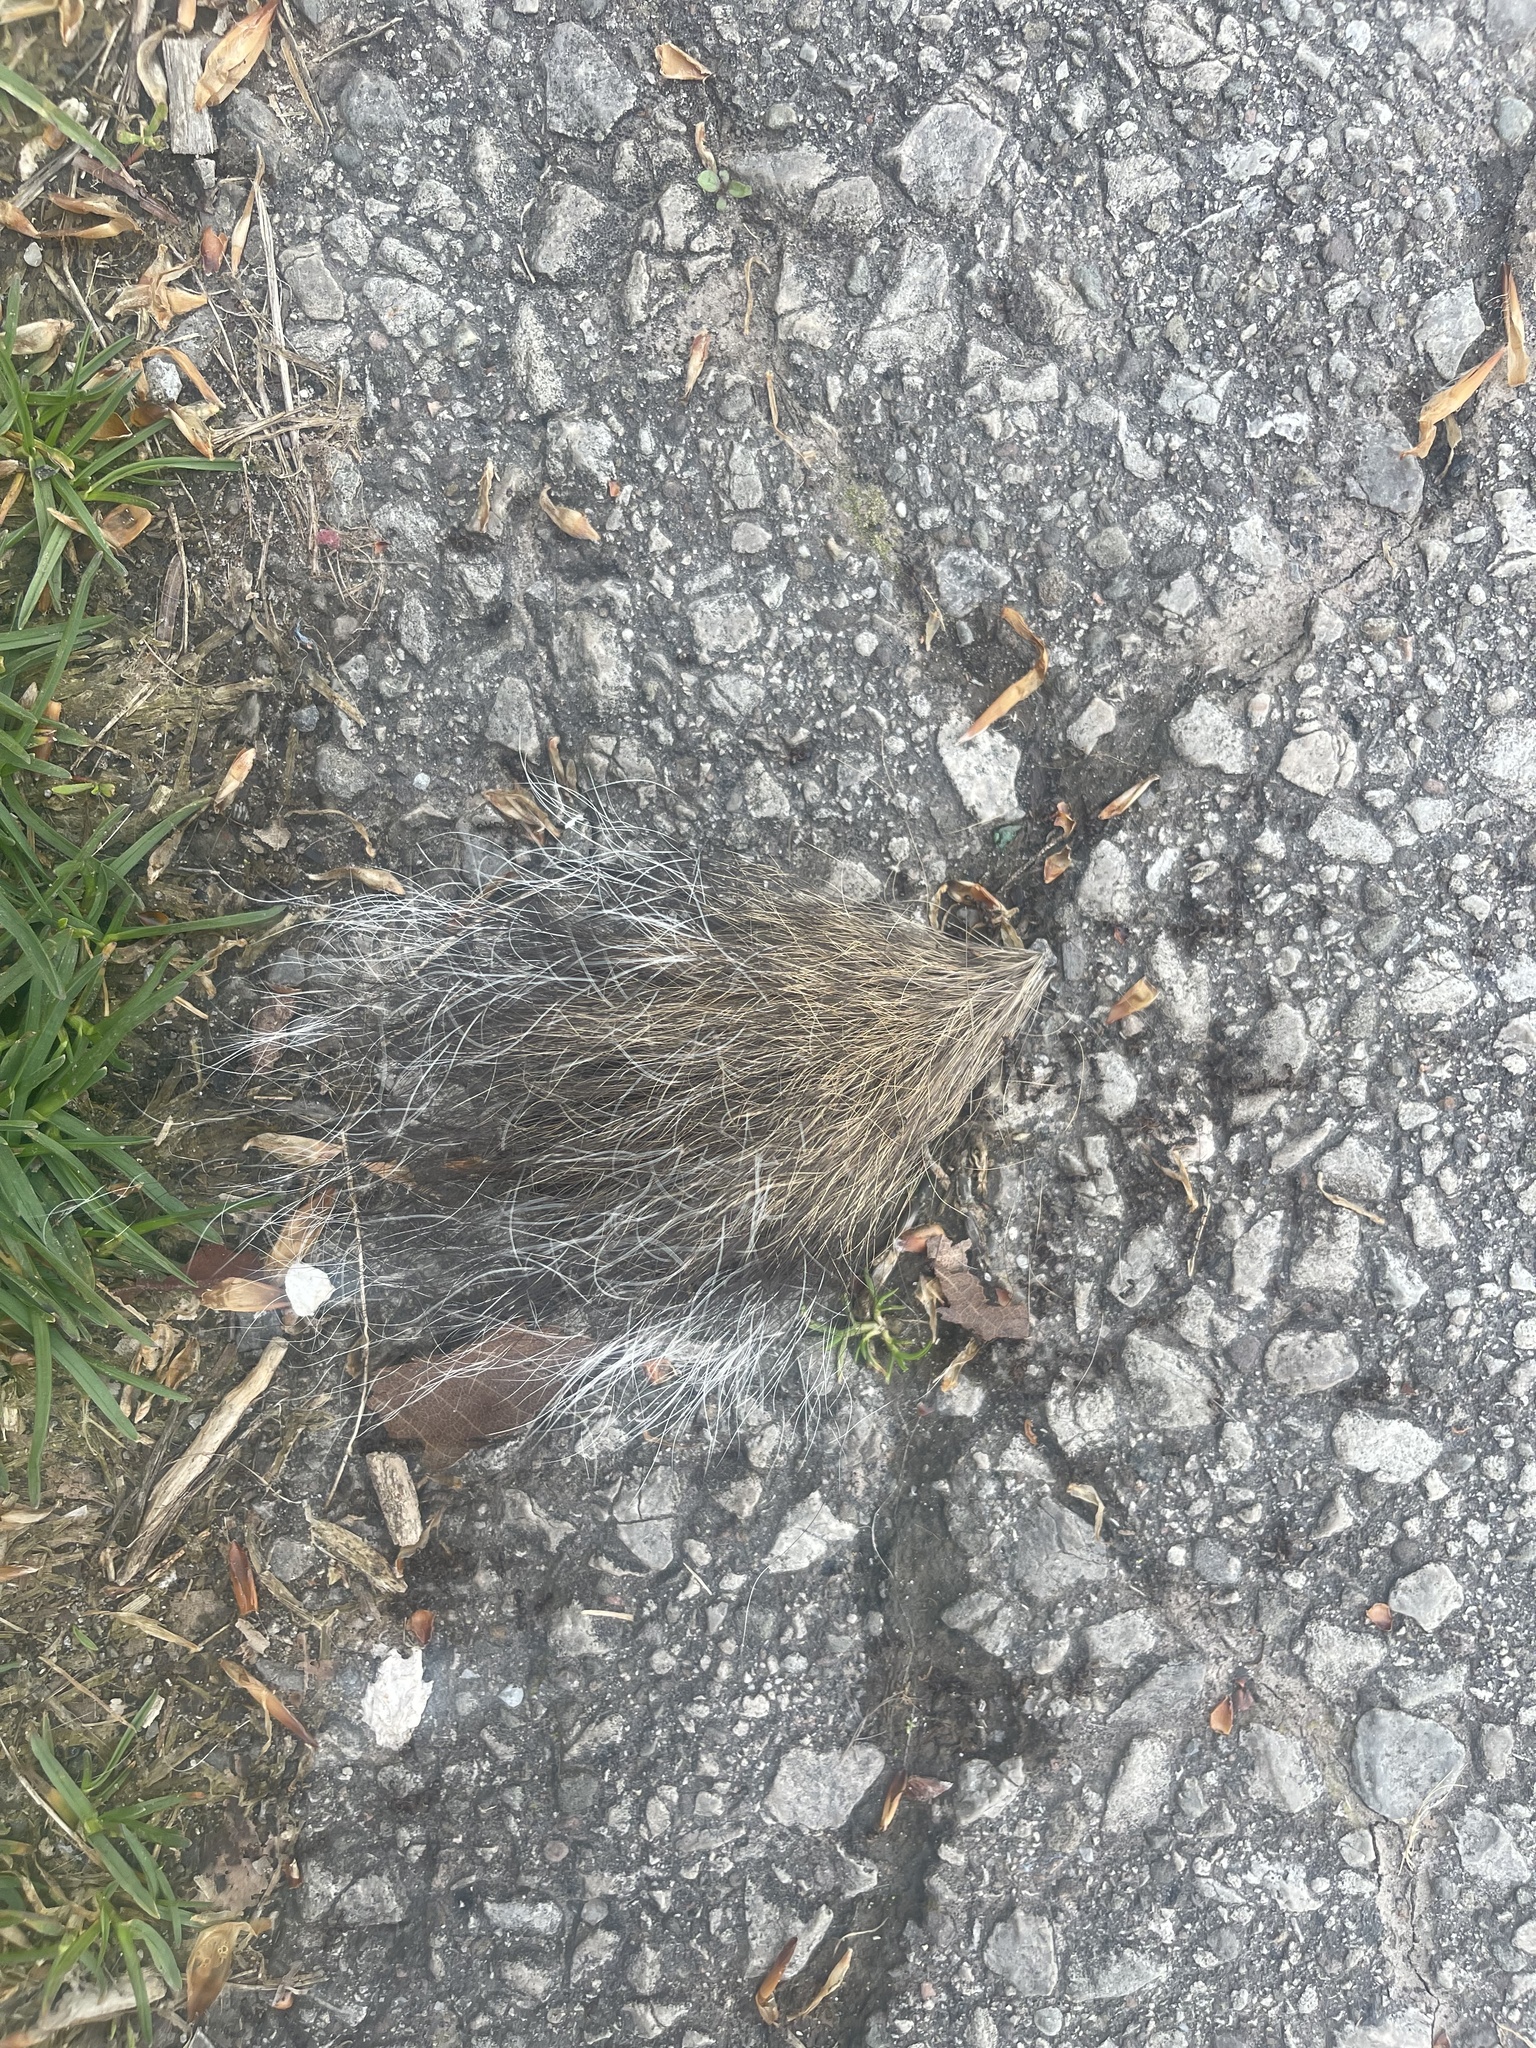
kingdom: Animalia
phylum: Chordata
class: Mammalia
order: Rodentia
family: Sciuridae
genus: Sciurus
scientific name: Sciurus carolinensis
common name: Eastern gray squirrel
